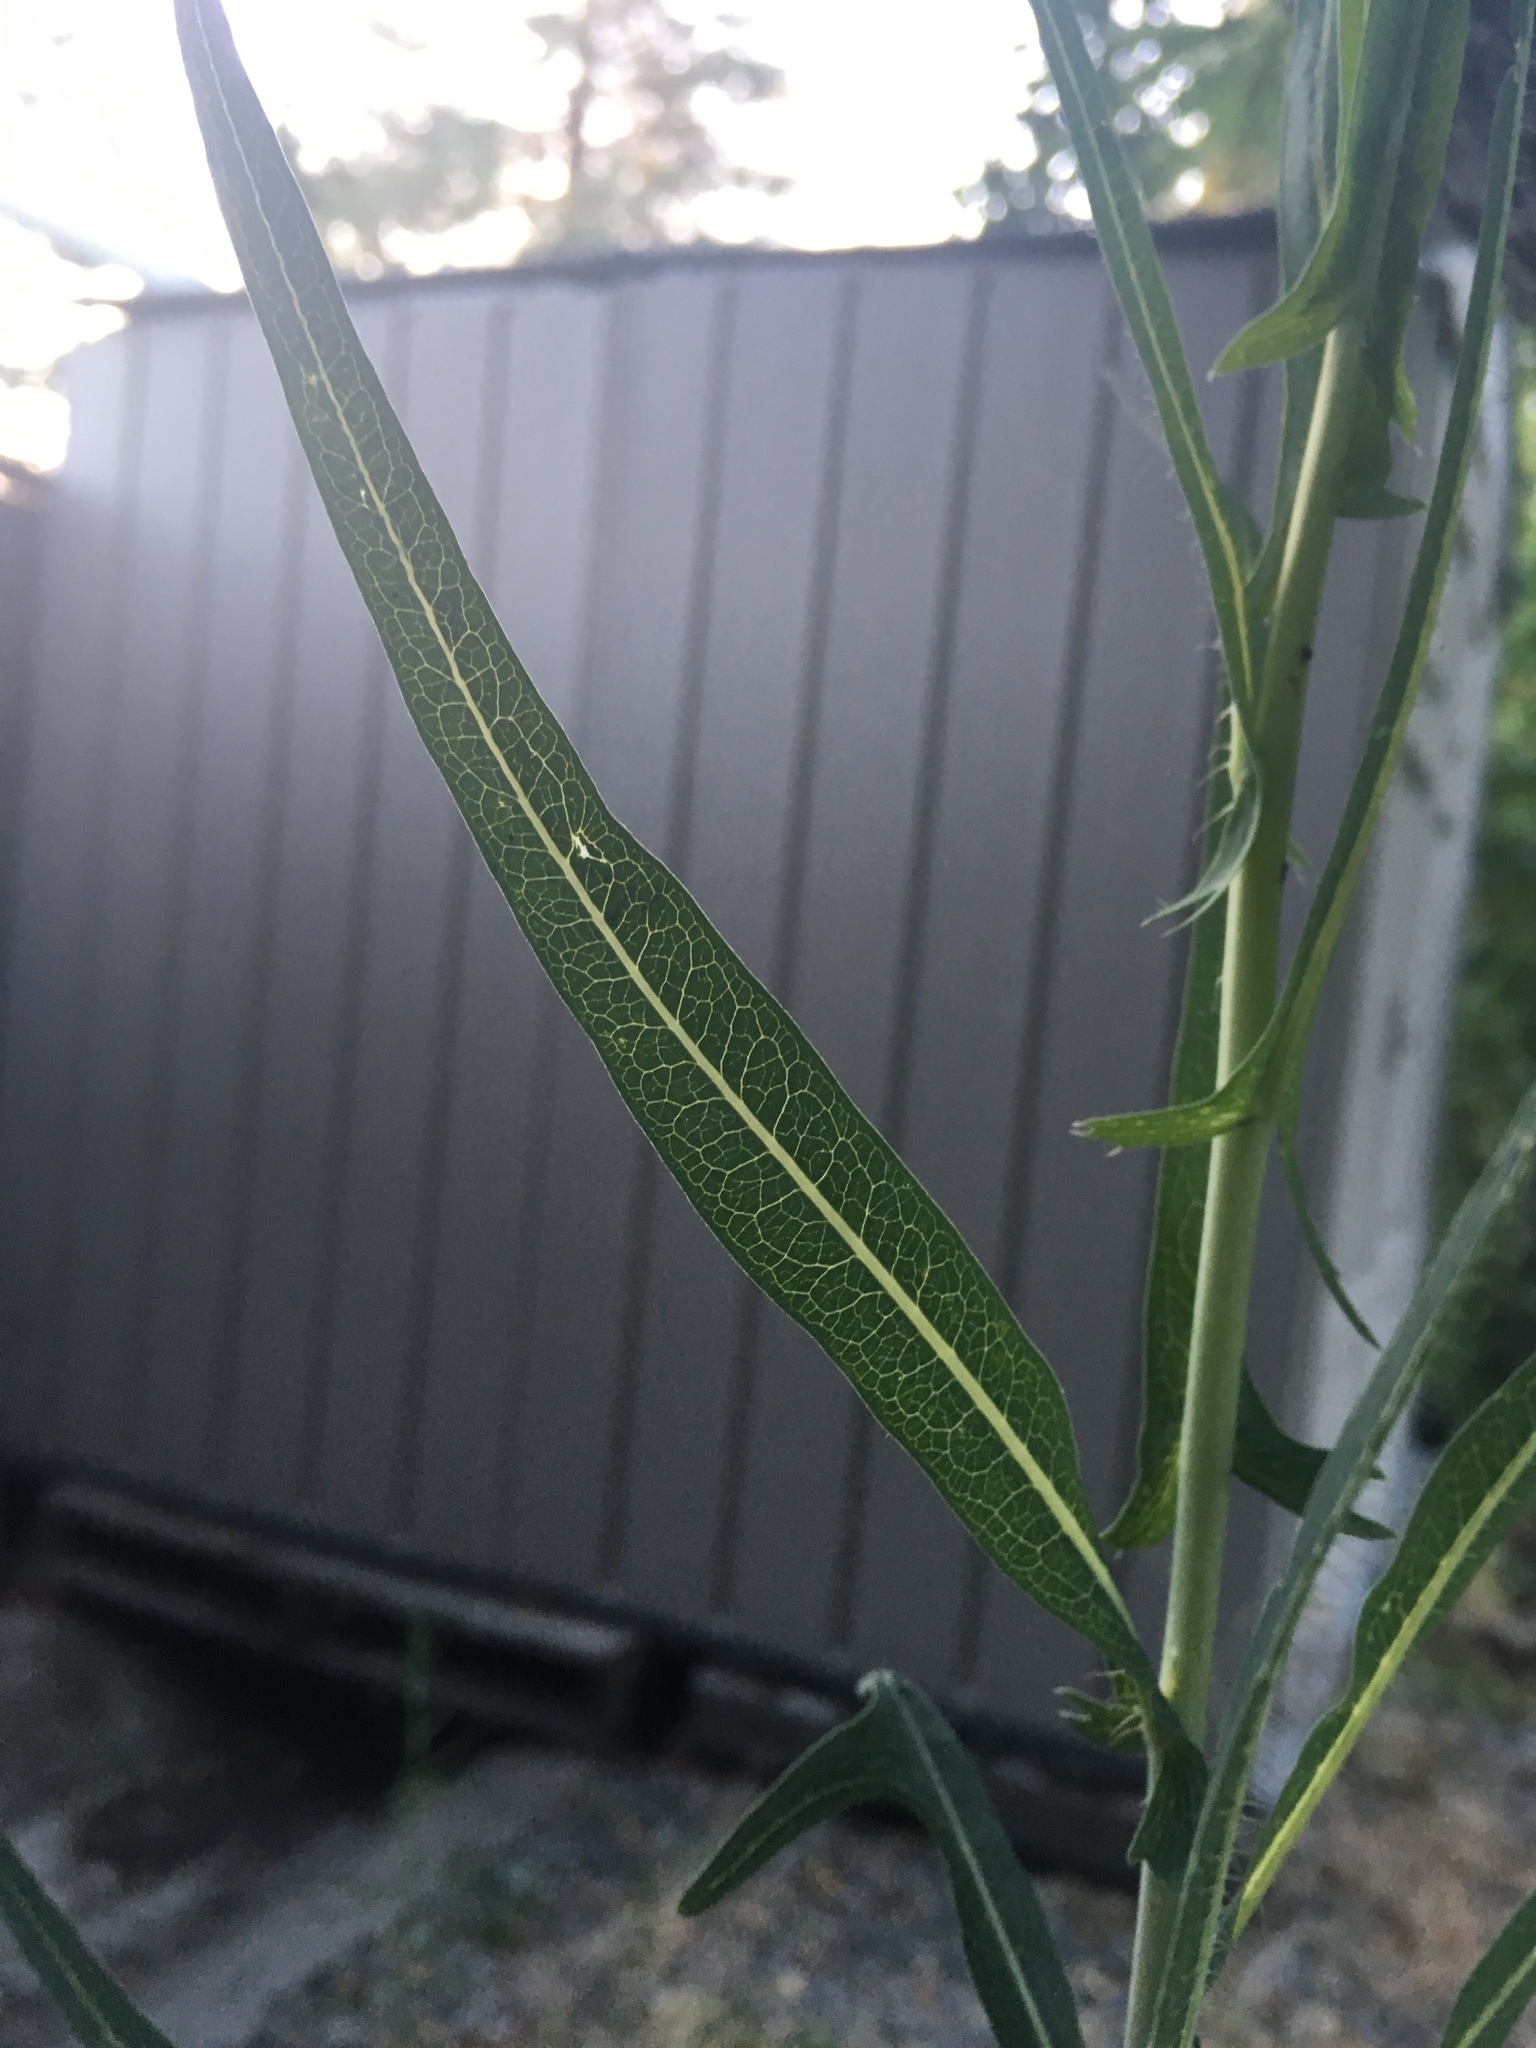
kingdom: Plantae
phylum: Tracheophyta
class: Magnoliopsida
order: Asterales
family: Asteraceae
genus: Lactuca
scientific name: Lactuca serriola
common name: Prickly lettuce
